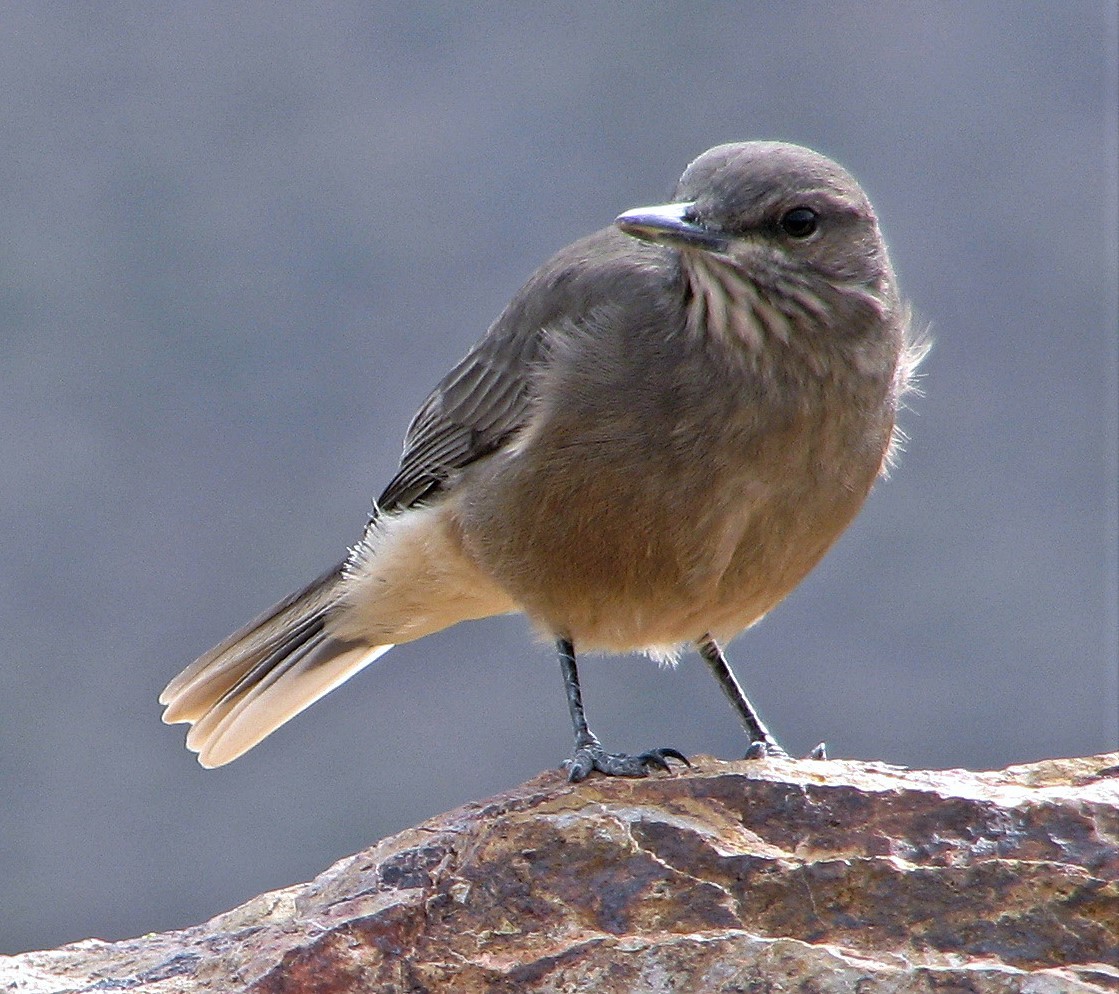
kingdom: Animalia
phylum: Chordata
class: Aves
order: Passeriformes
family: Tyrannidae
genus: Agriornis
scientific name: Agriornis montanus
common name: Black-billed shrike-tyrant
